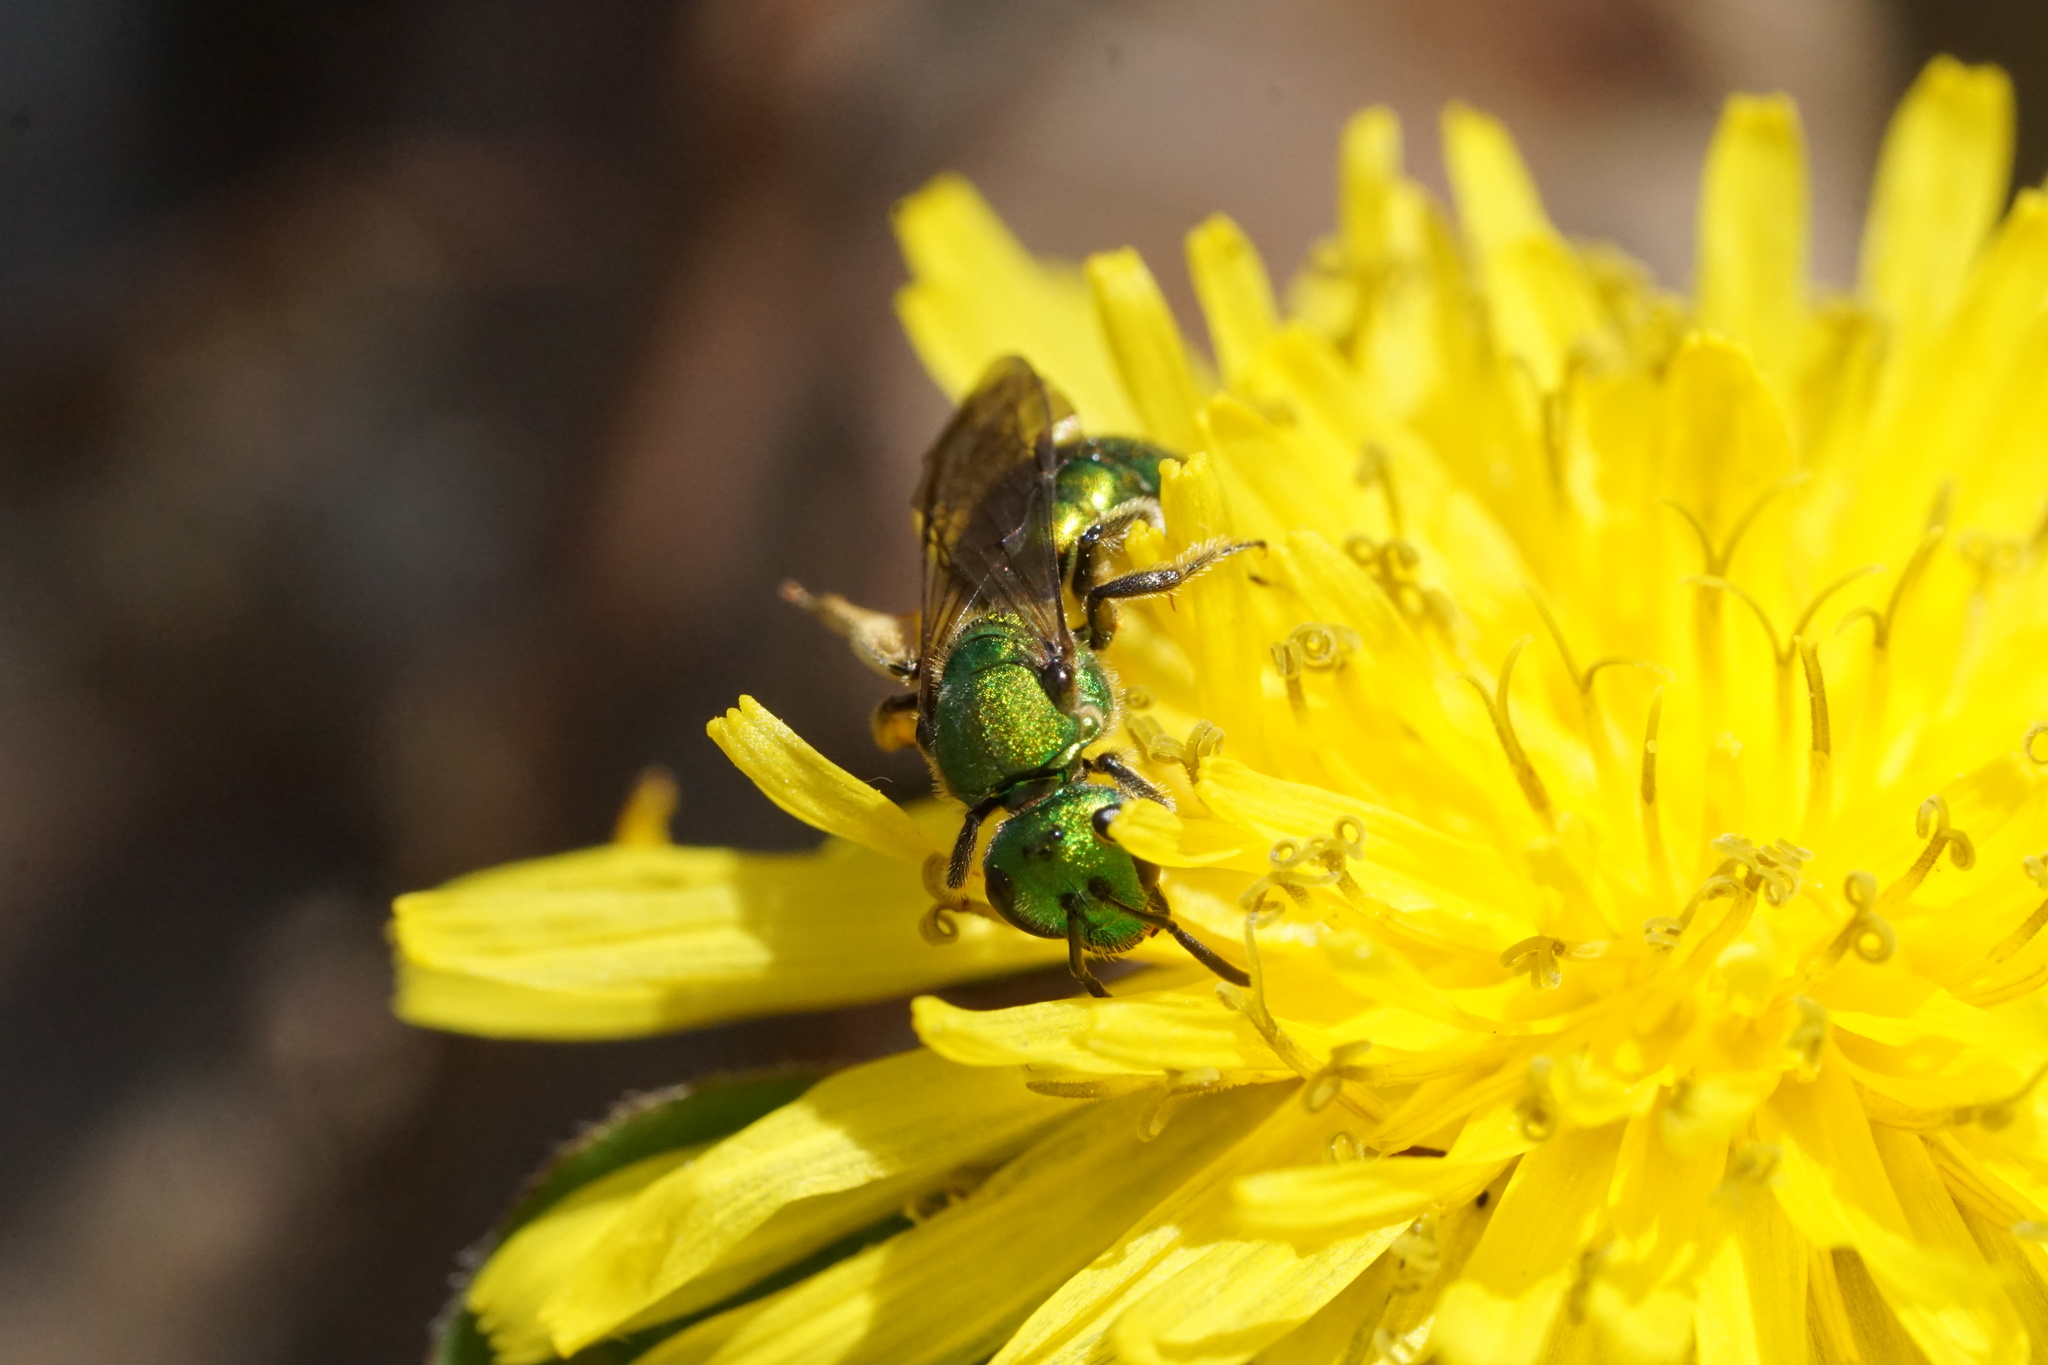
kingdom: Animalia
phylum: Arthropoda
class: Insecta
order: Hymenoptera
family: Halictidae
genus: Augochlora
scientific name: Augochlora pura
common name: Pure green sweat bee
